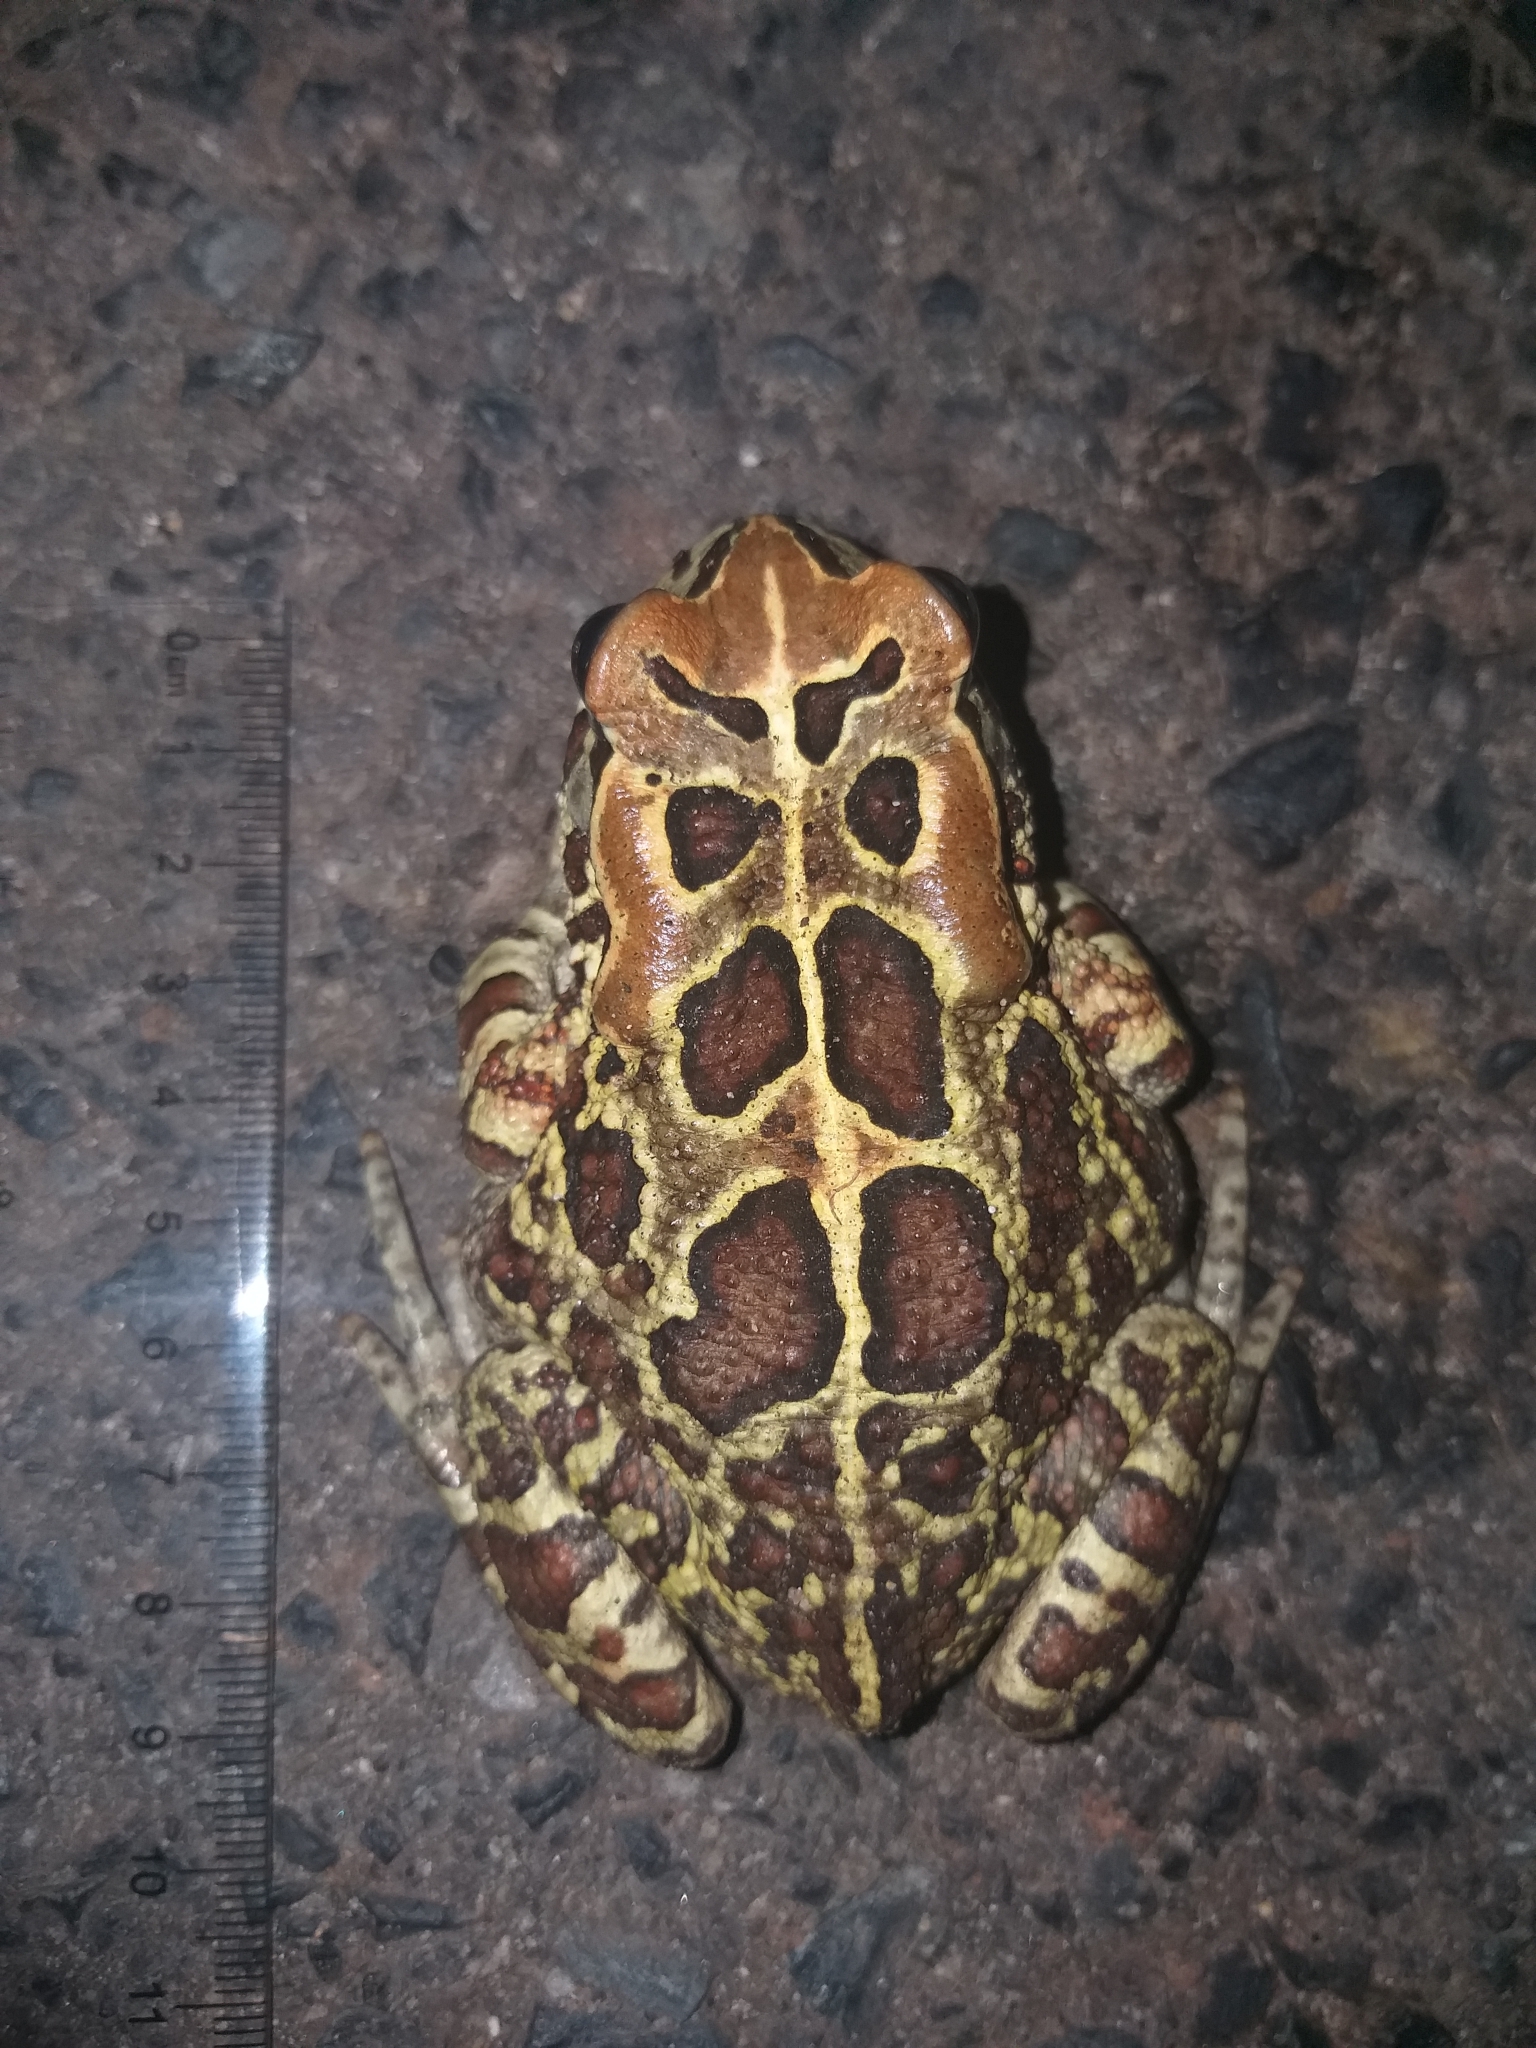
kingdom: Animalia
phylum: Chordata
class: Amphibia
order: Anura
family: Bufonidae
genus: Sclerophrys
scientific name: Sclerophrys pantherina
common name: Panther toad
